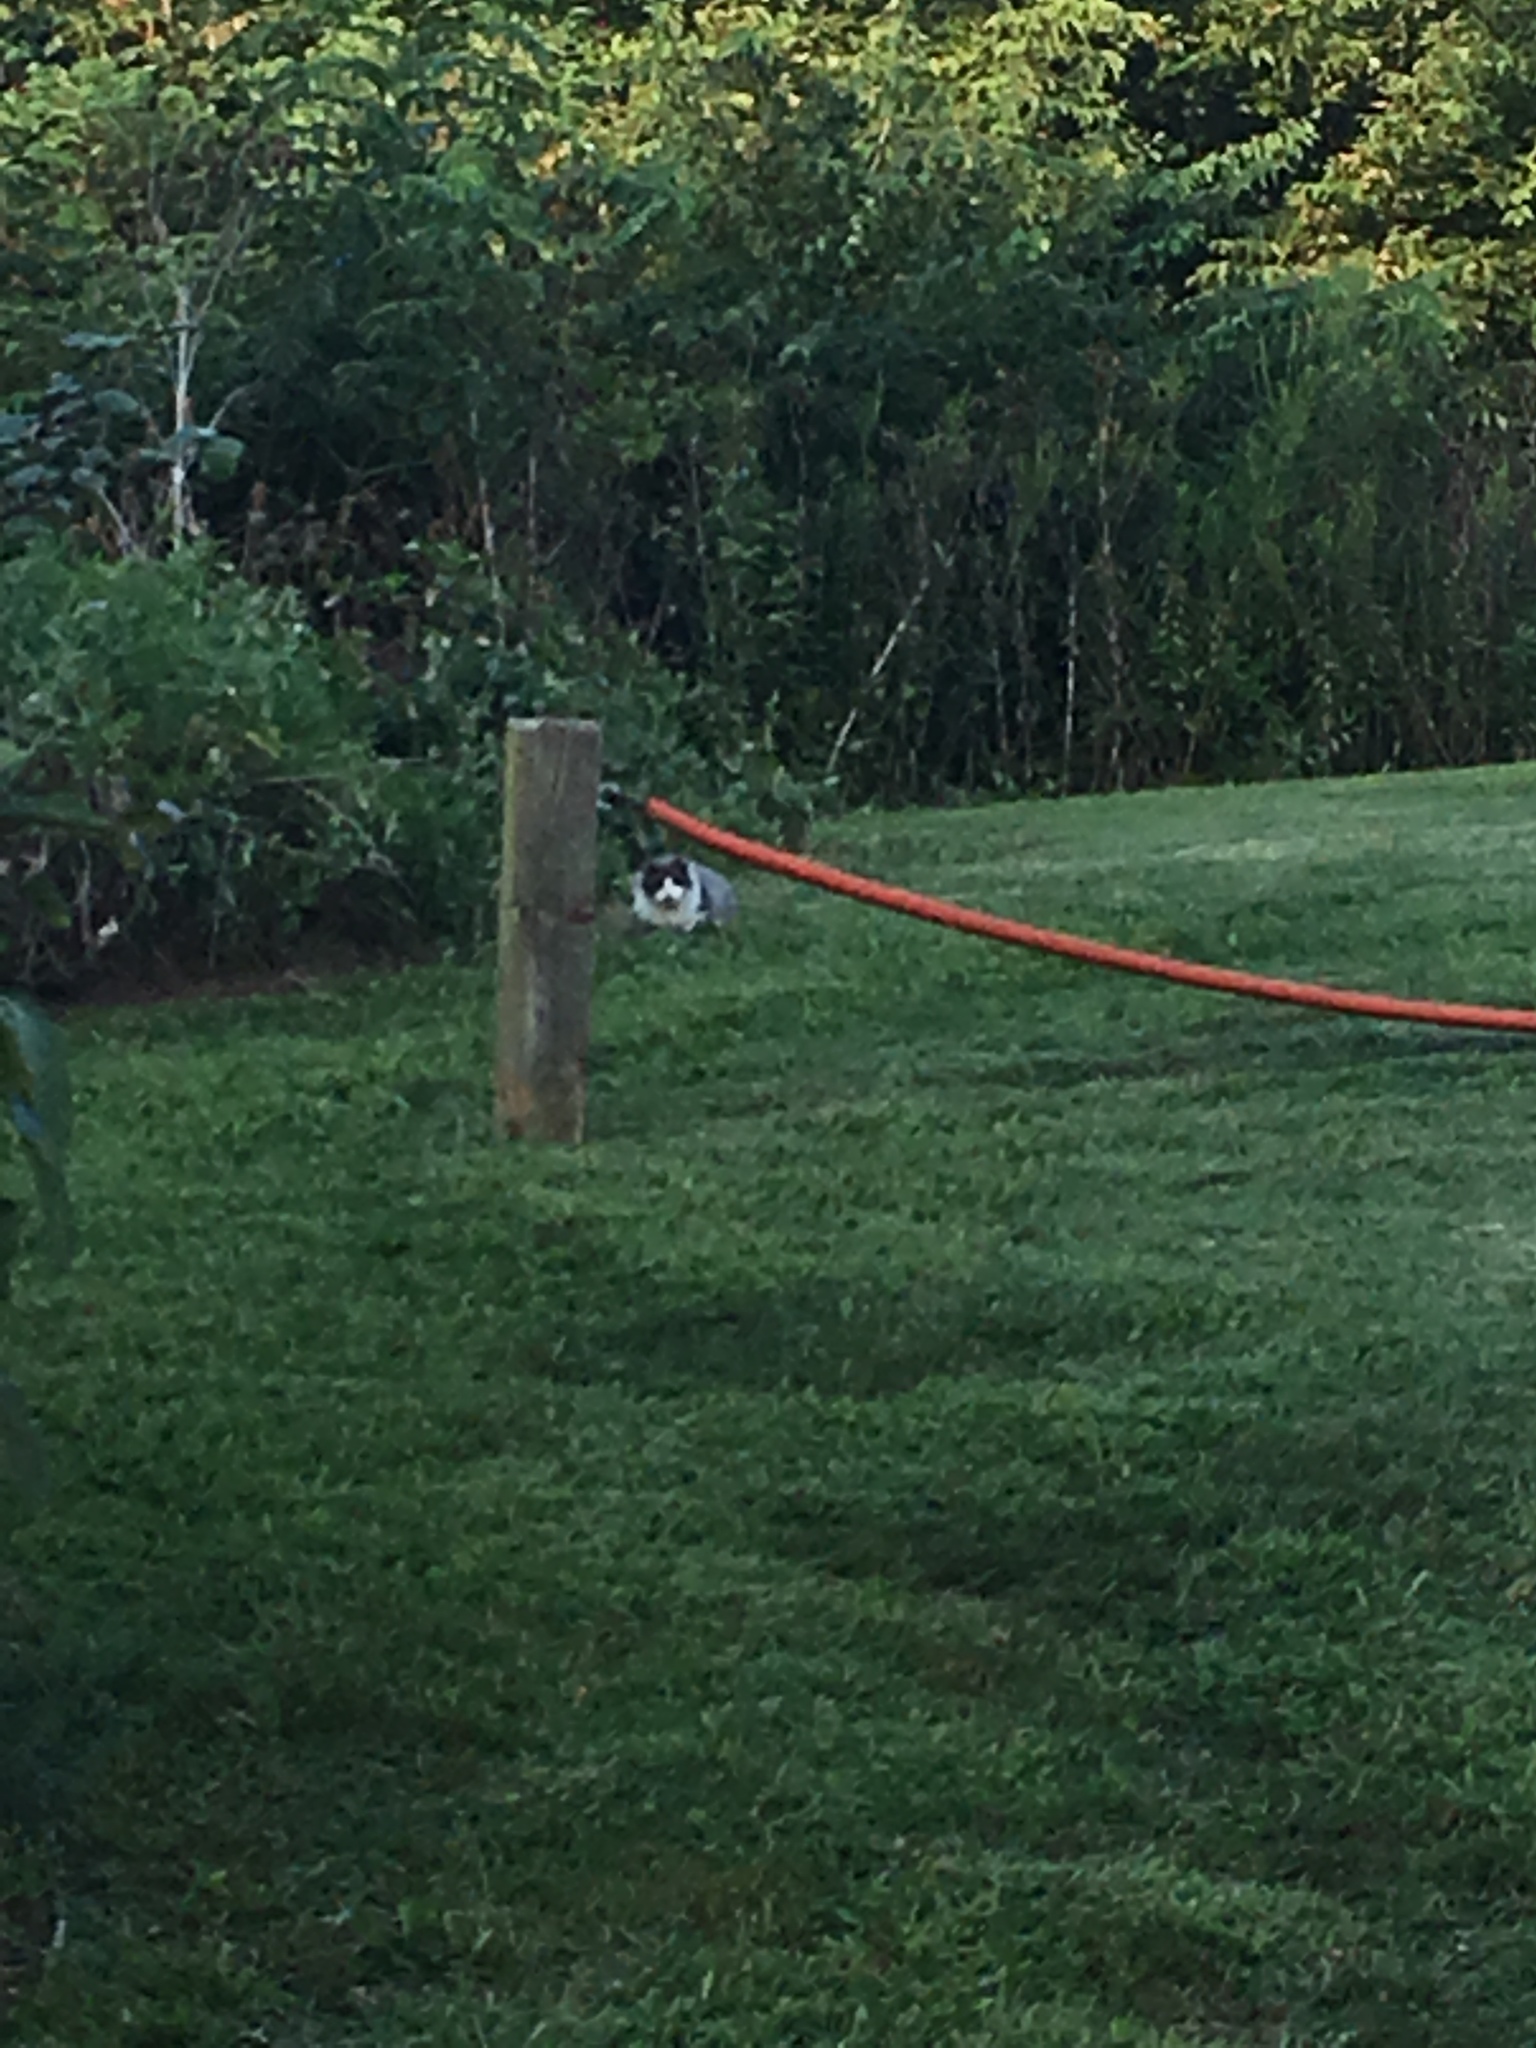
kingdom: Animalia
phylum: Chordata
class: Mammalia
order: Carnivora
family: Felidae
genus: Felis
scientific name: Felis catus
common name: Domestic cat
